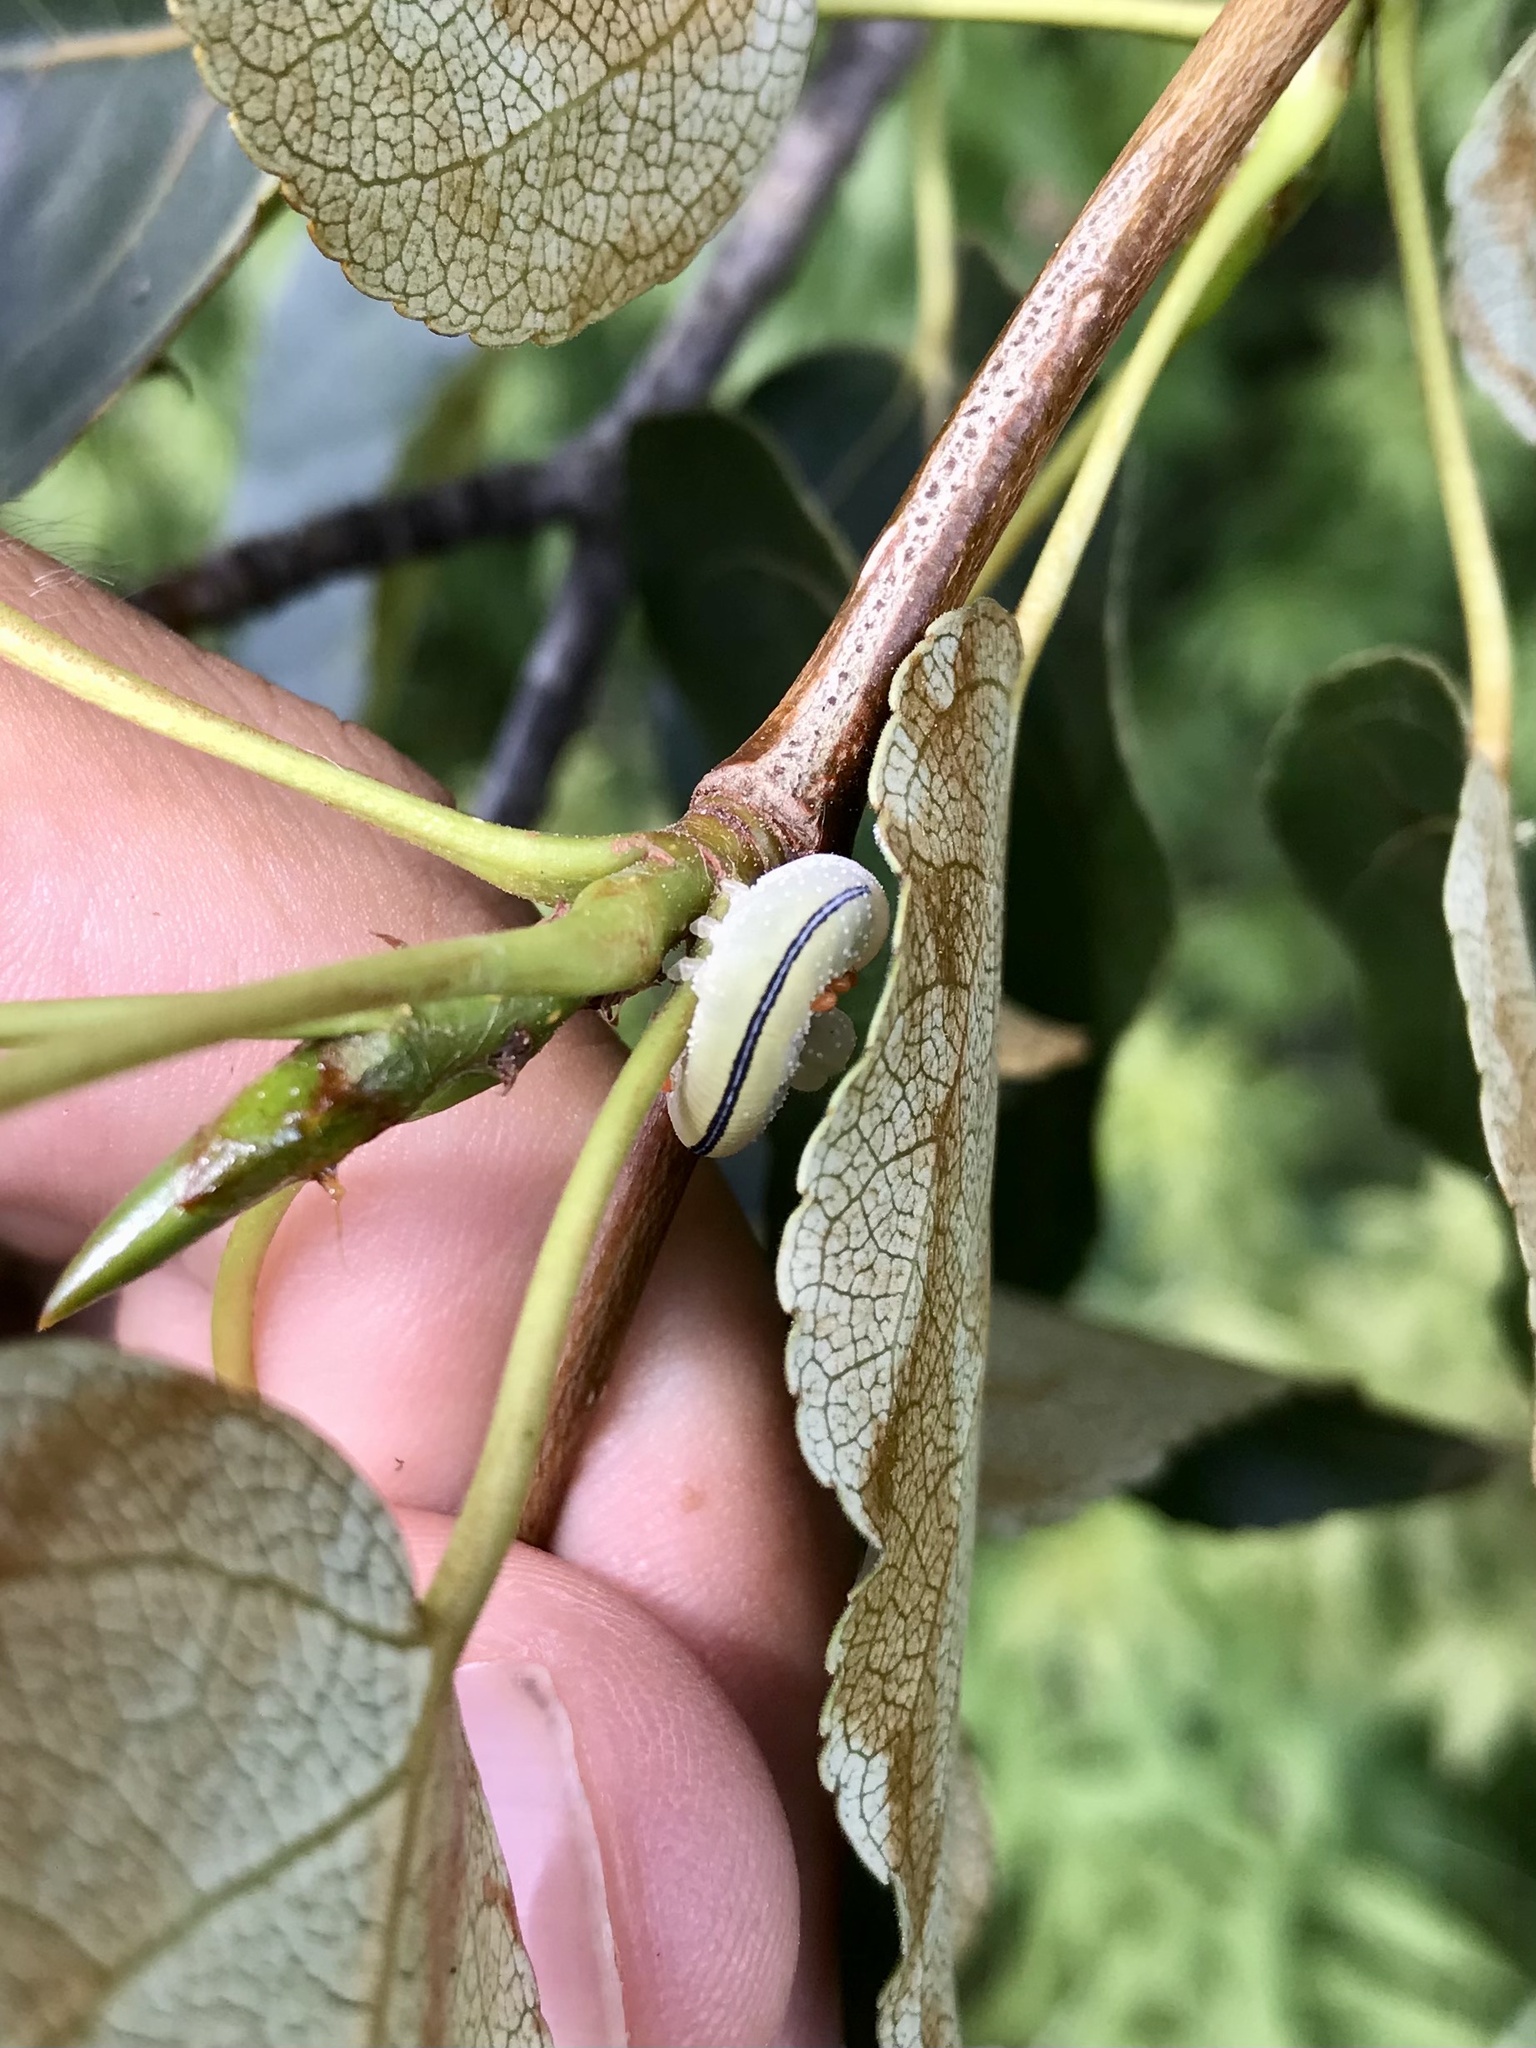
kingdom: Animalia
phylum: Arthropoda
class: Insecta
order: Hymenoptera
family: Cimbicidae
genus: Cimbex
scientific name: Cimbex americana
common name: Elm sawfly
